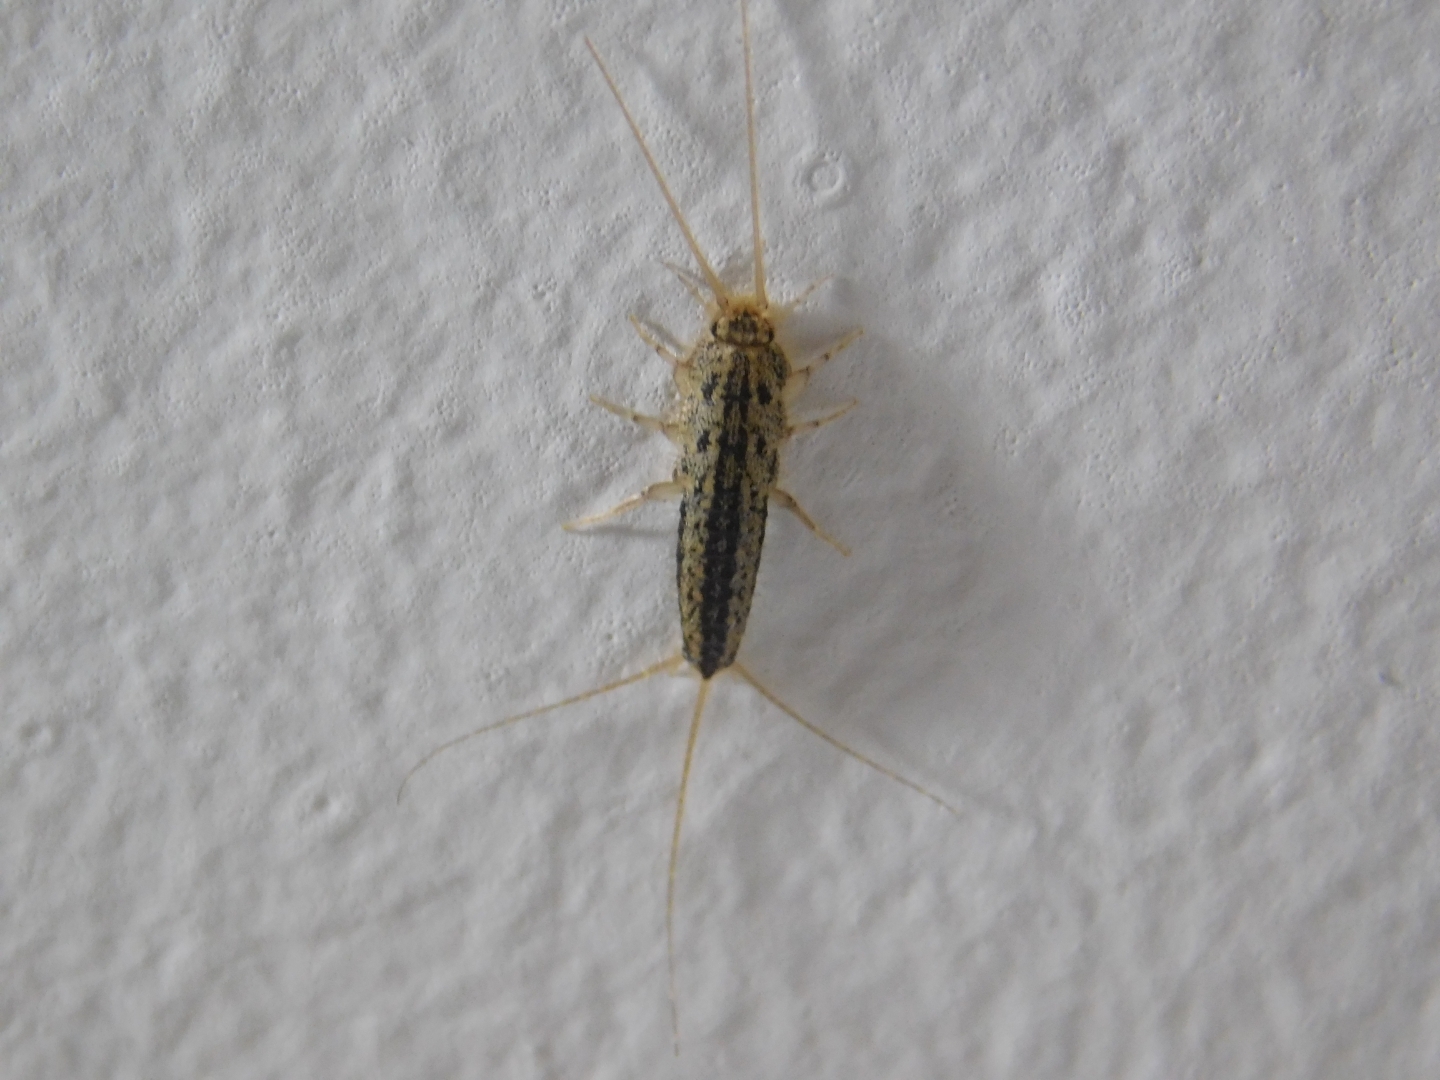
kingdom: Animalia
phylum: Arthropoda
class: Insecta
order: Zygentoma
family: Lepismatidae
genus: Ctenolepisma
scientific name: Ctenolepisma lineata
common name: Four-lined silverfish
